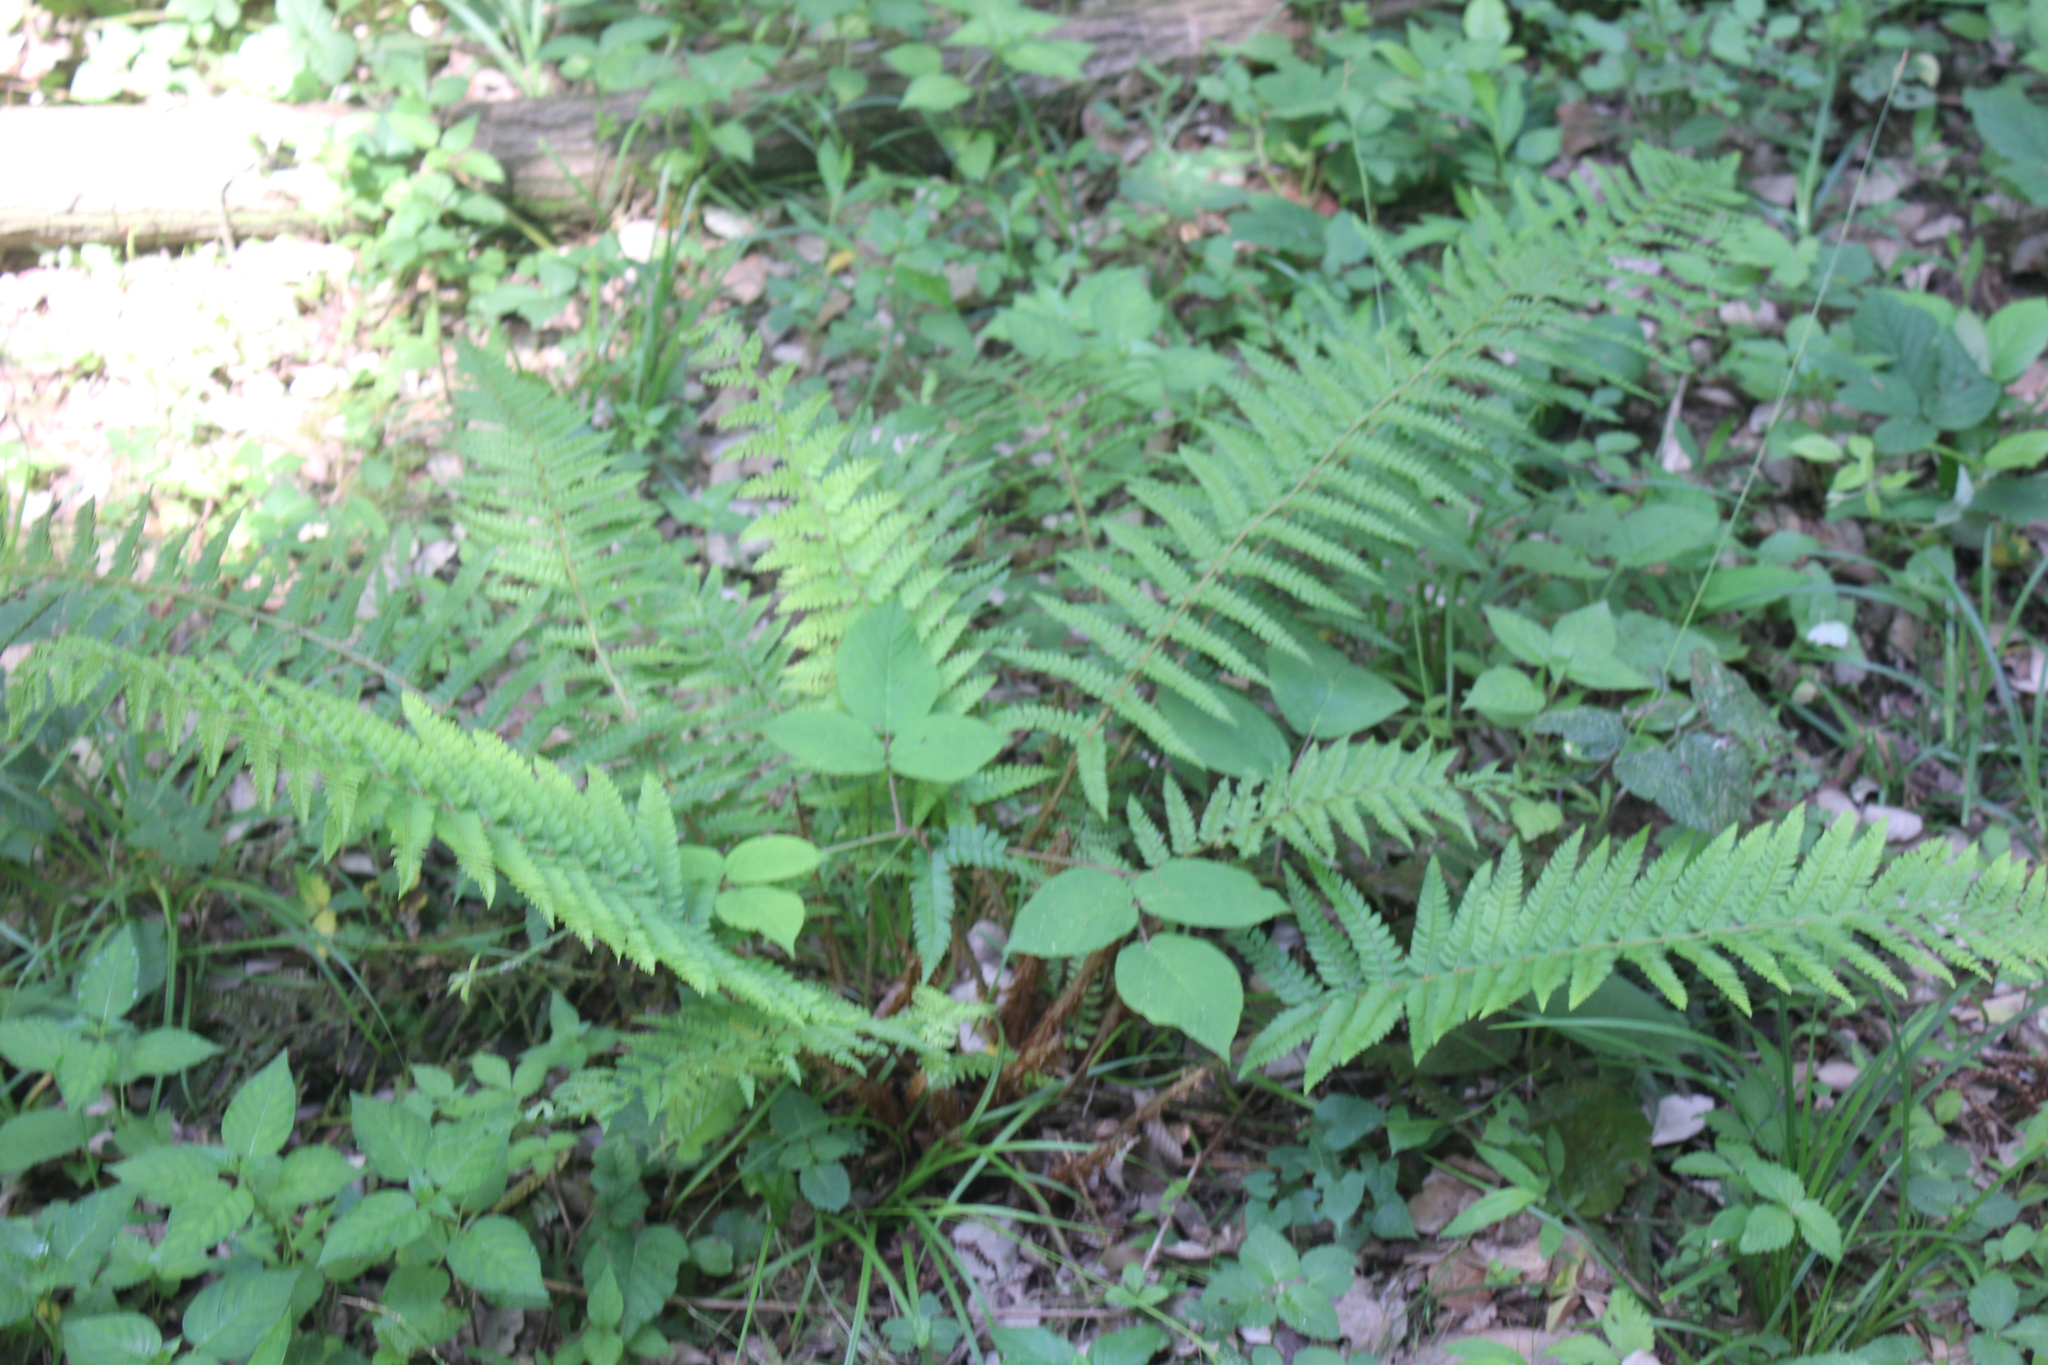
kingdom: Plantae
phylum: Tracheophyta
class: Polypodiopsida
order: Polypodiales
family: Dryopteridaceae
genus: Dryopteris
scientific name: Dryopteris filix-mas
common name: Male fern
